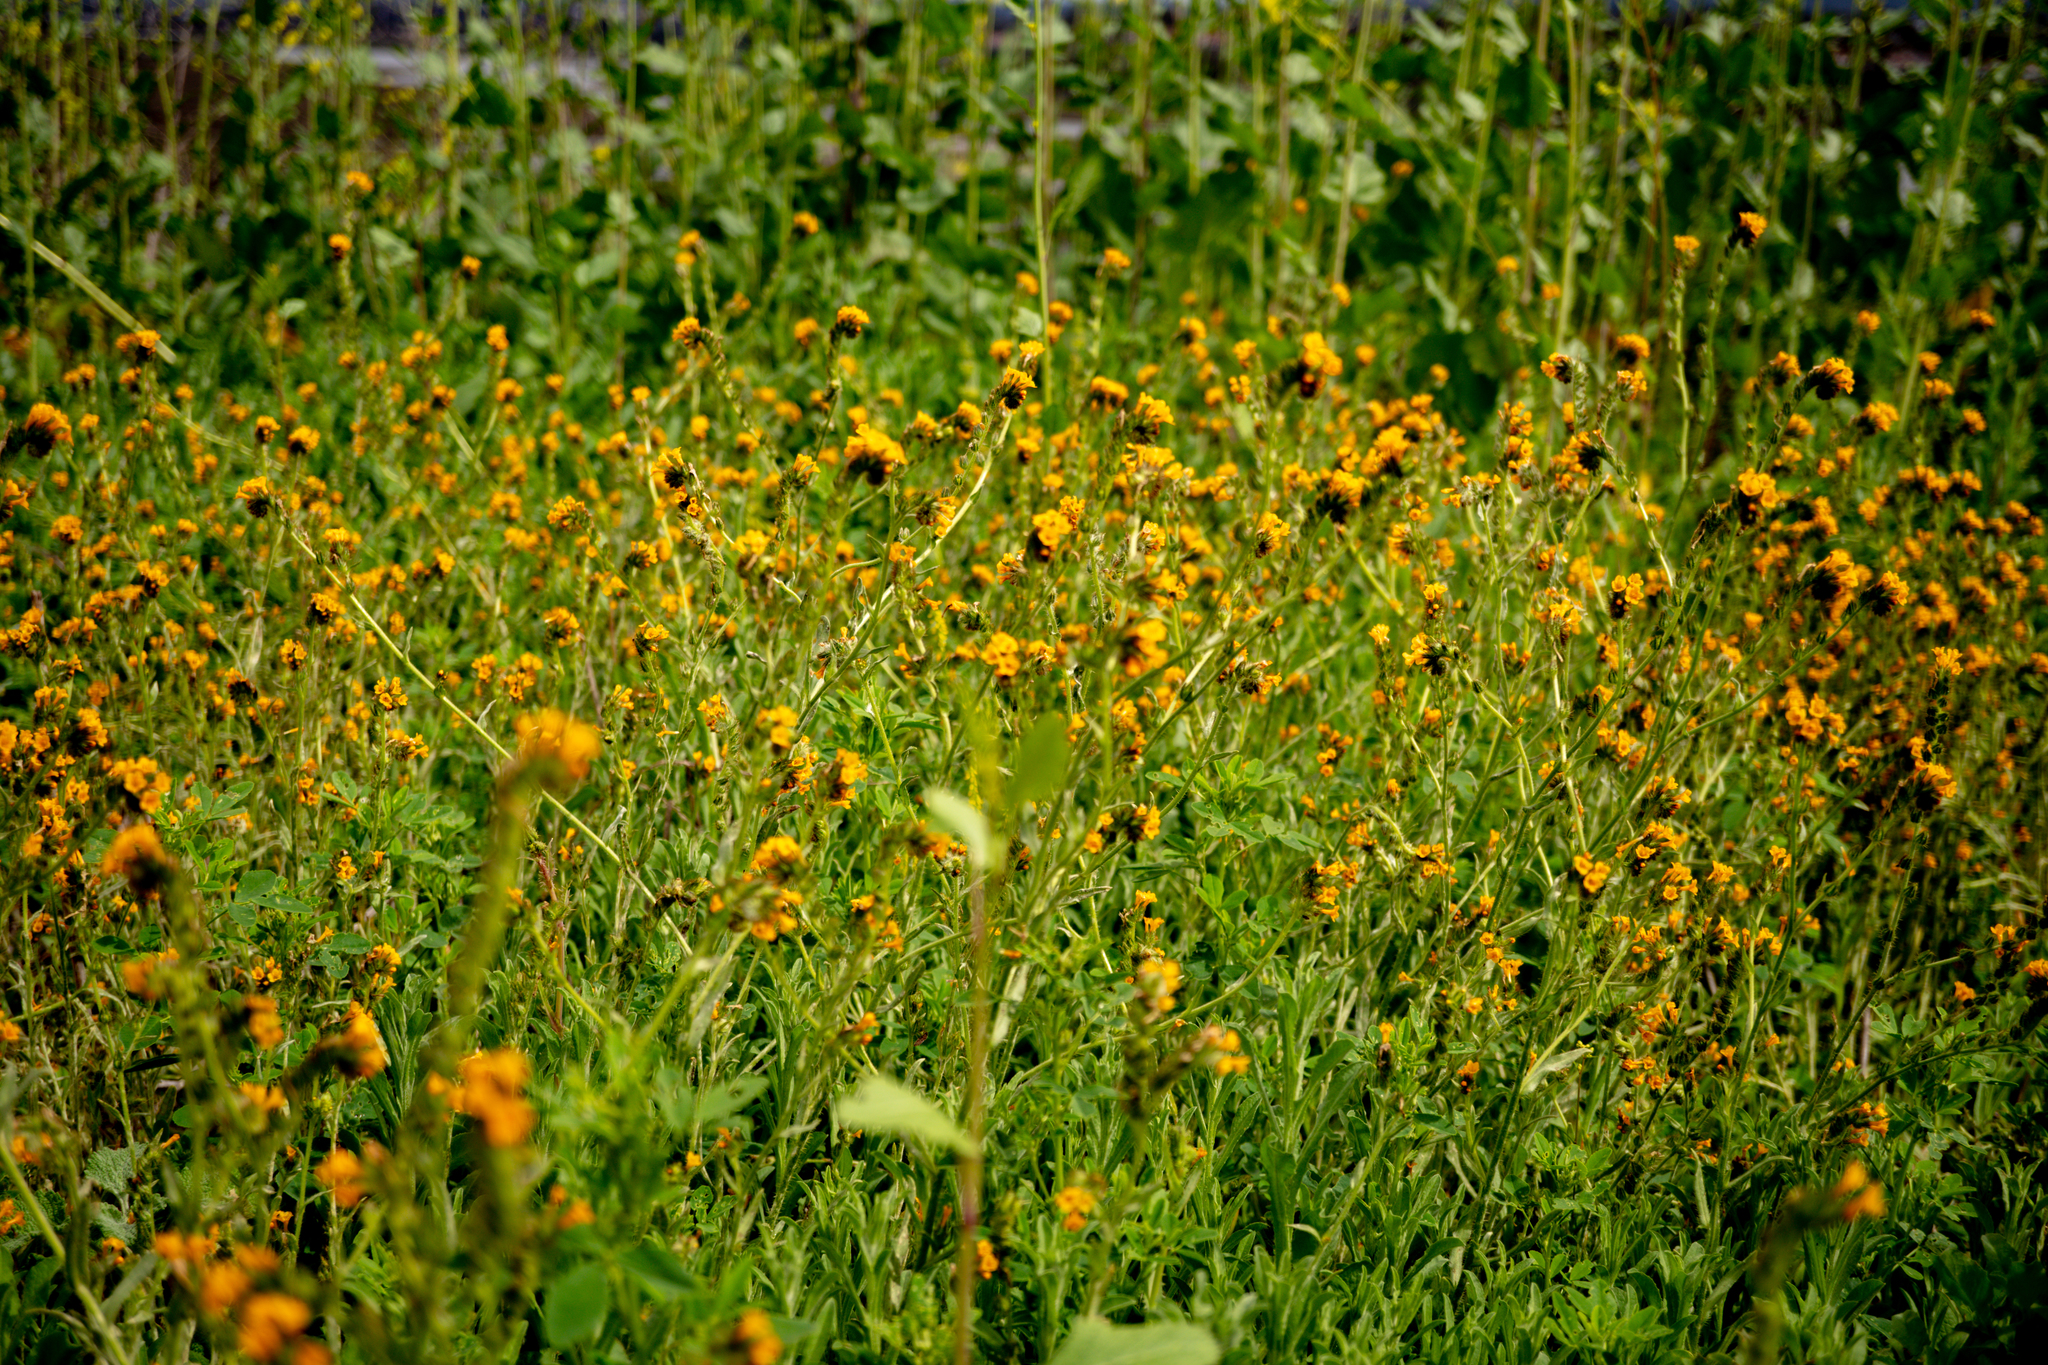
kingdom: Plantae
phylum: Tracheophyta
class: Magnoliopsida
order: Boraginales
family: Boraginaceae
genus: Amsinckia
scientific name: Amsinckia menziesii
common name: Menzies' fiddleneck
